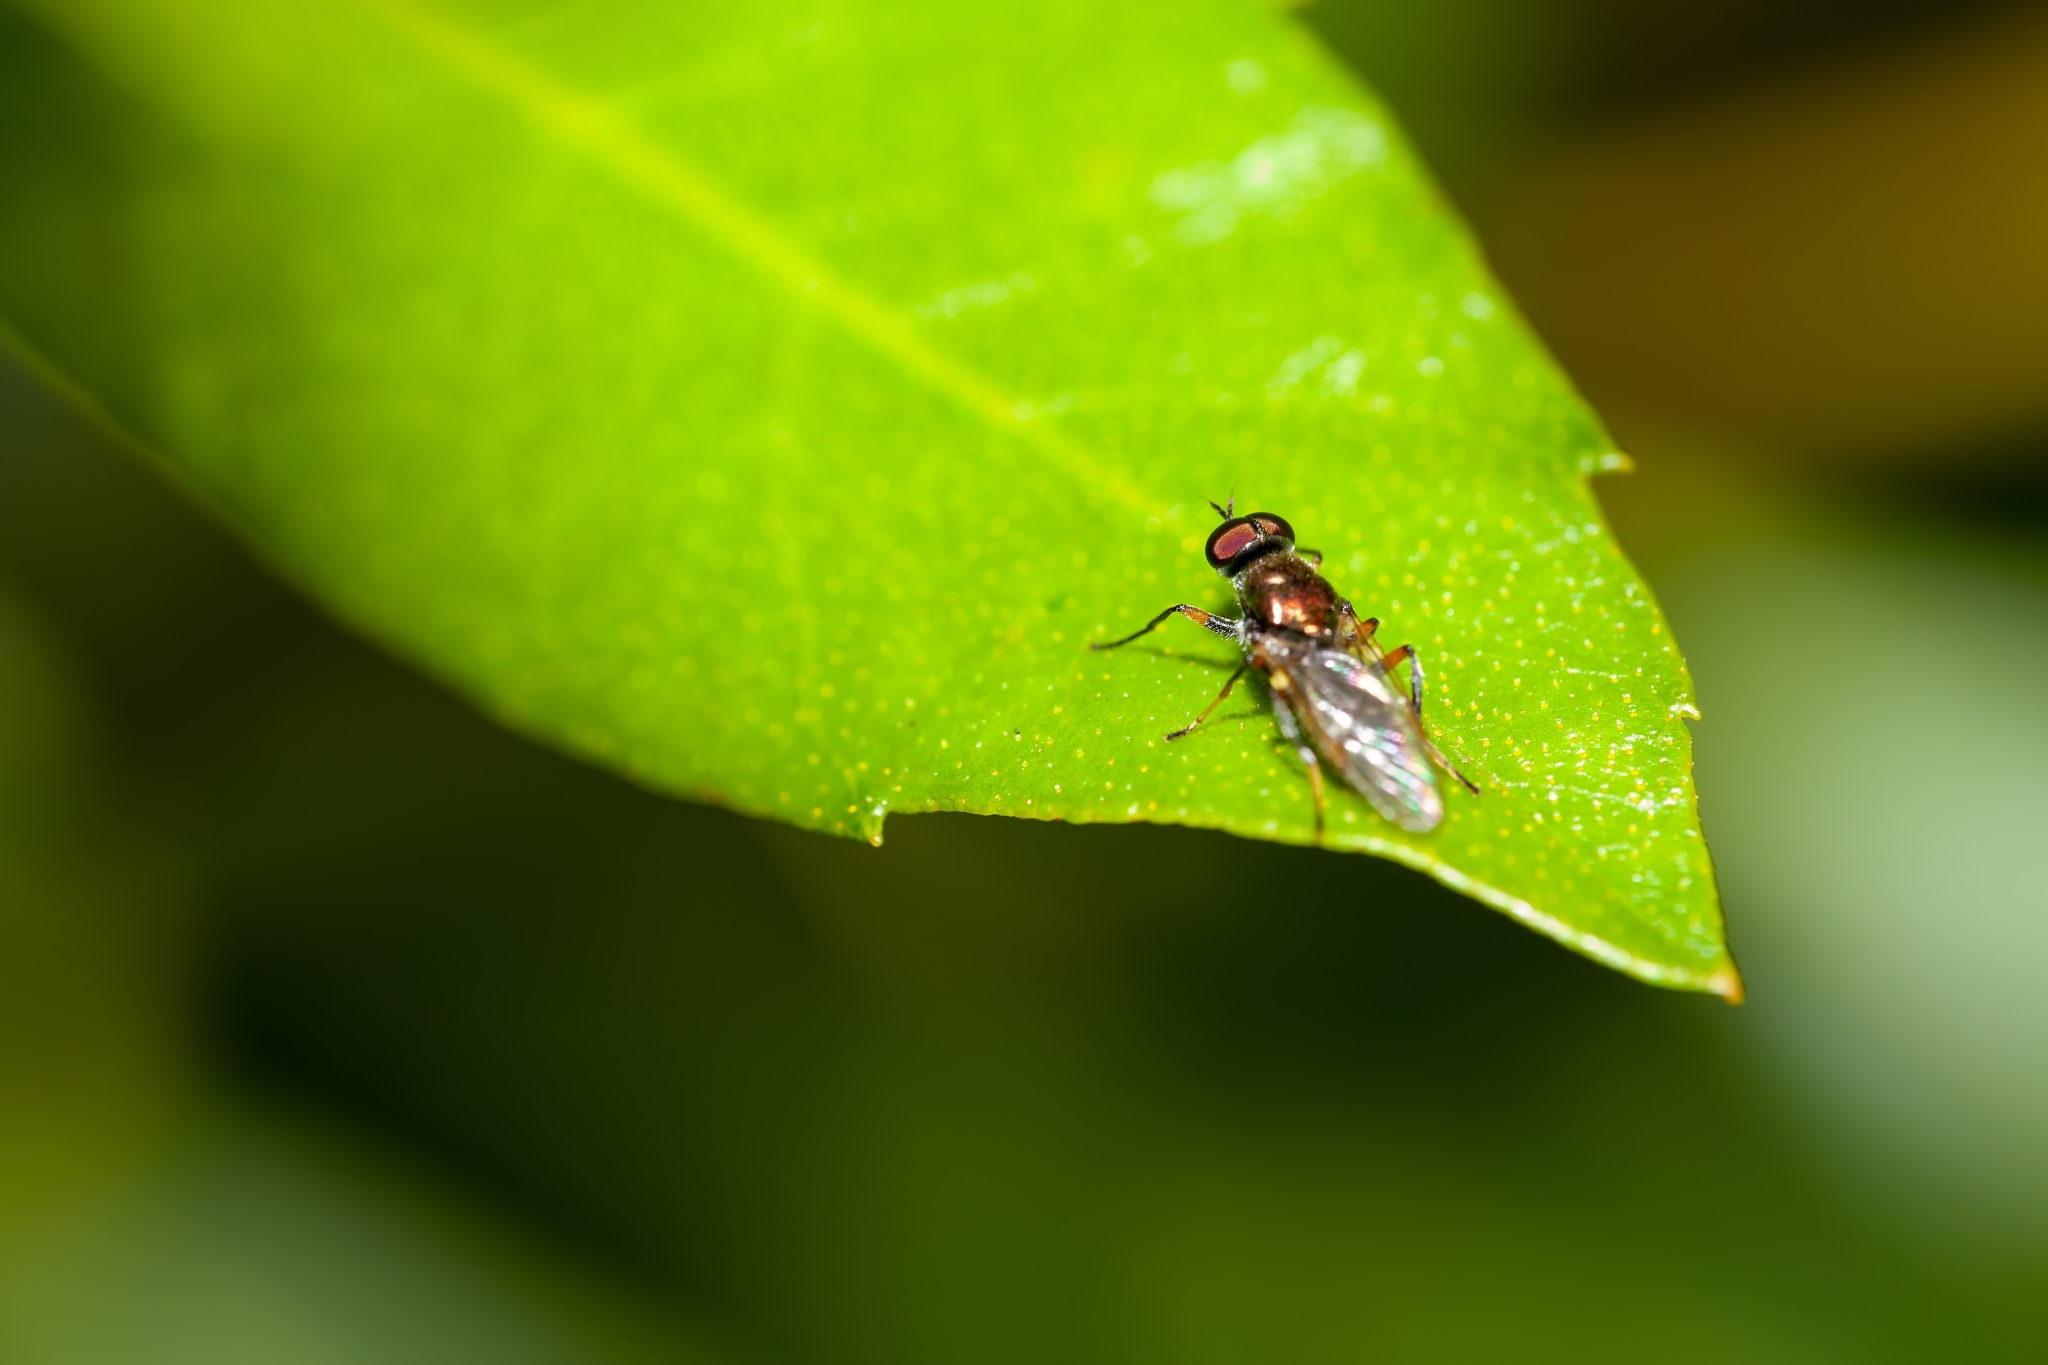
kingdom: Animalia
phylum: Arthropoda
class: Insecta
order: Diptera
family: Stratiomyidae
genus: Nothomyia
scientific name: Nothomyia calopus
